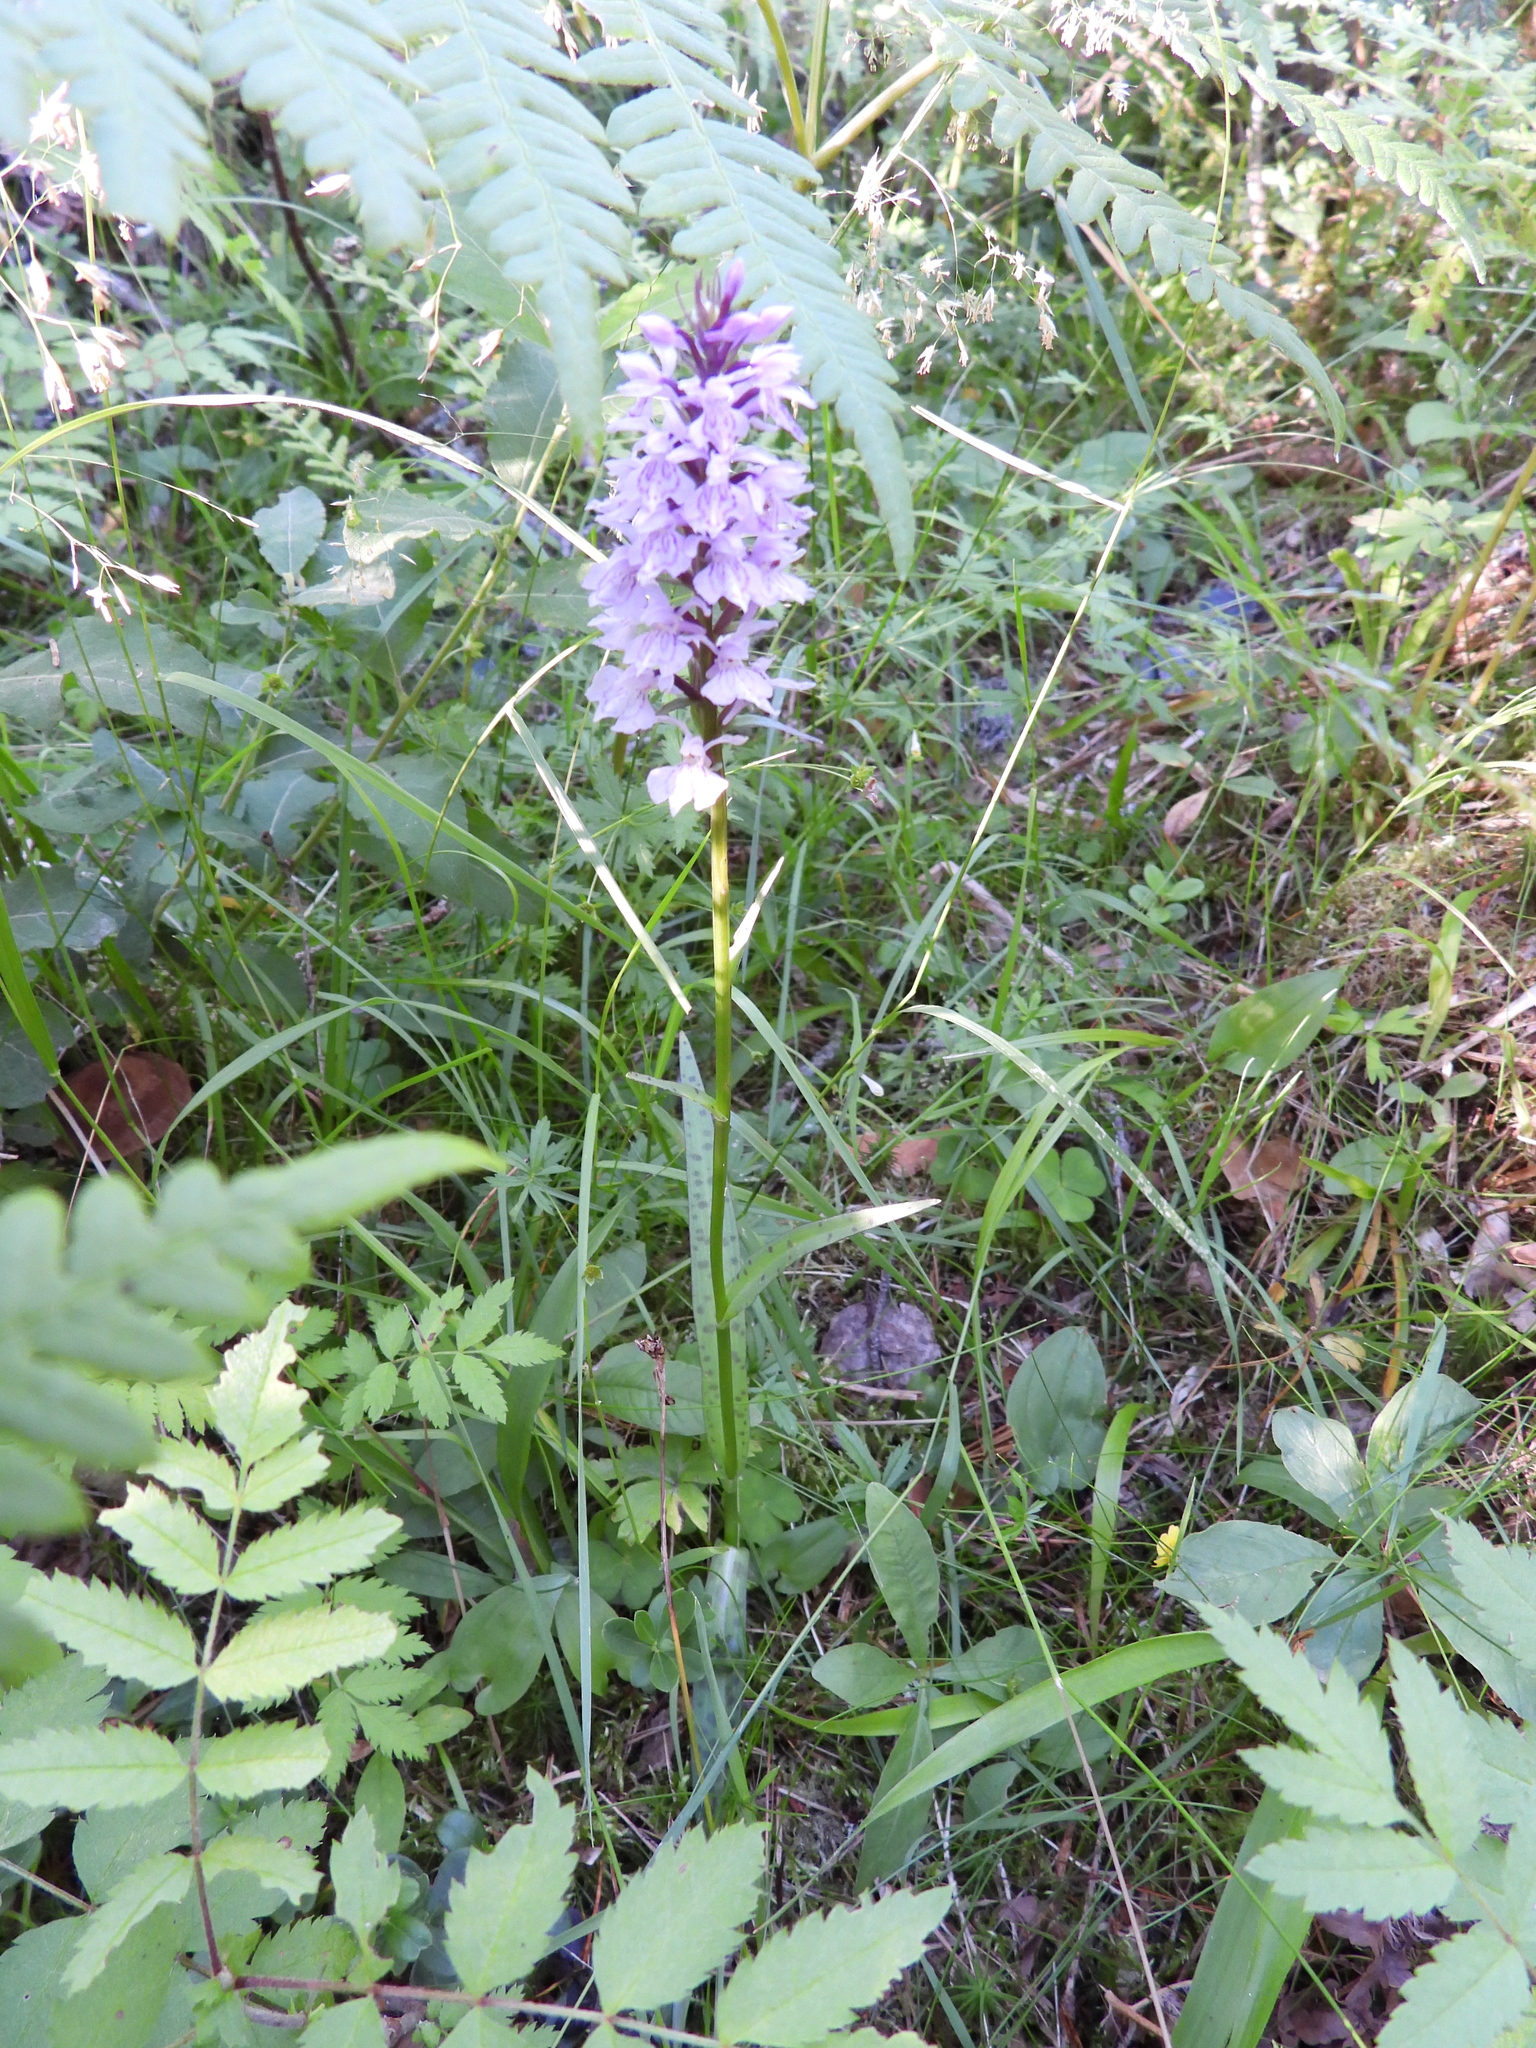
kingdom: Plantae
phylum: Tracheophyta
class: Liliopsida
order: Asparagales
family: Orchidaceae
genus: Dactylorhiza
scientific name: Dactylorhiza maculata
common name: Heath spotted-orchid
